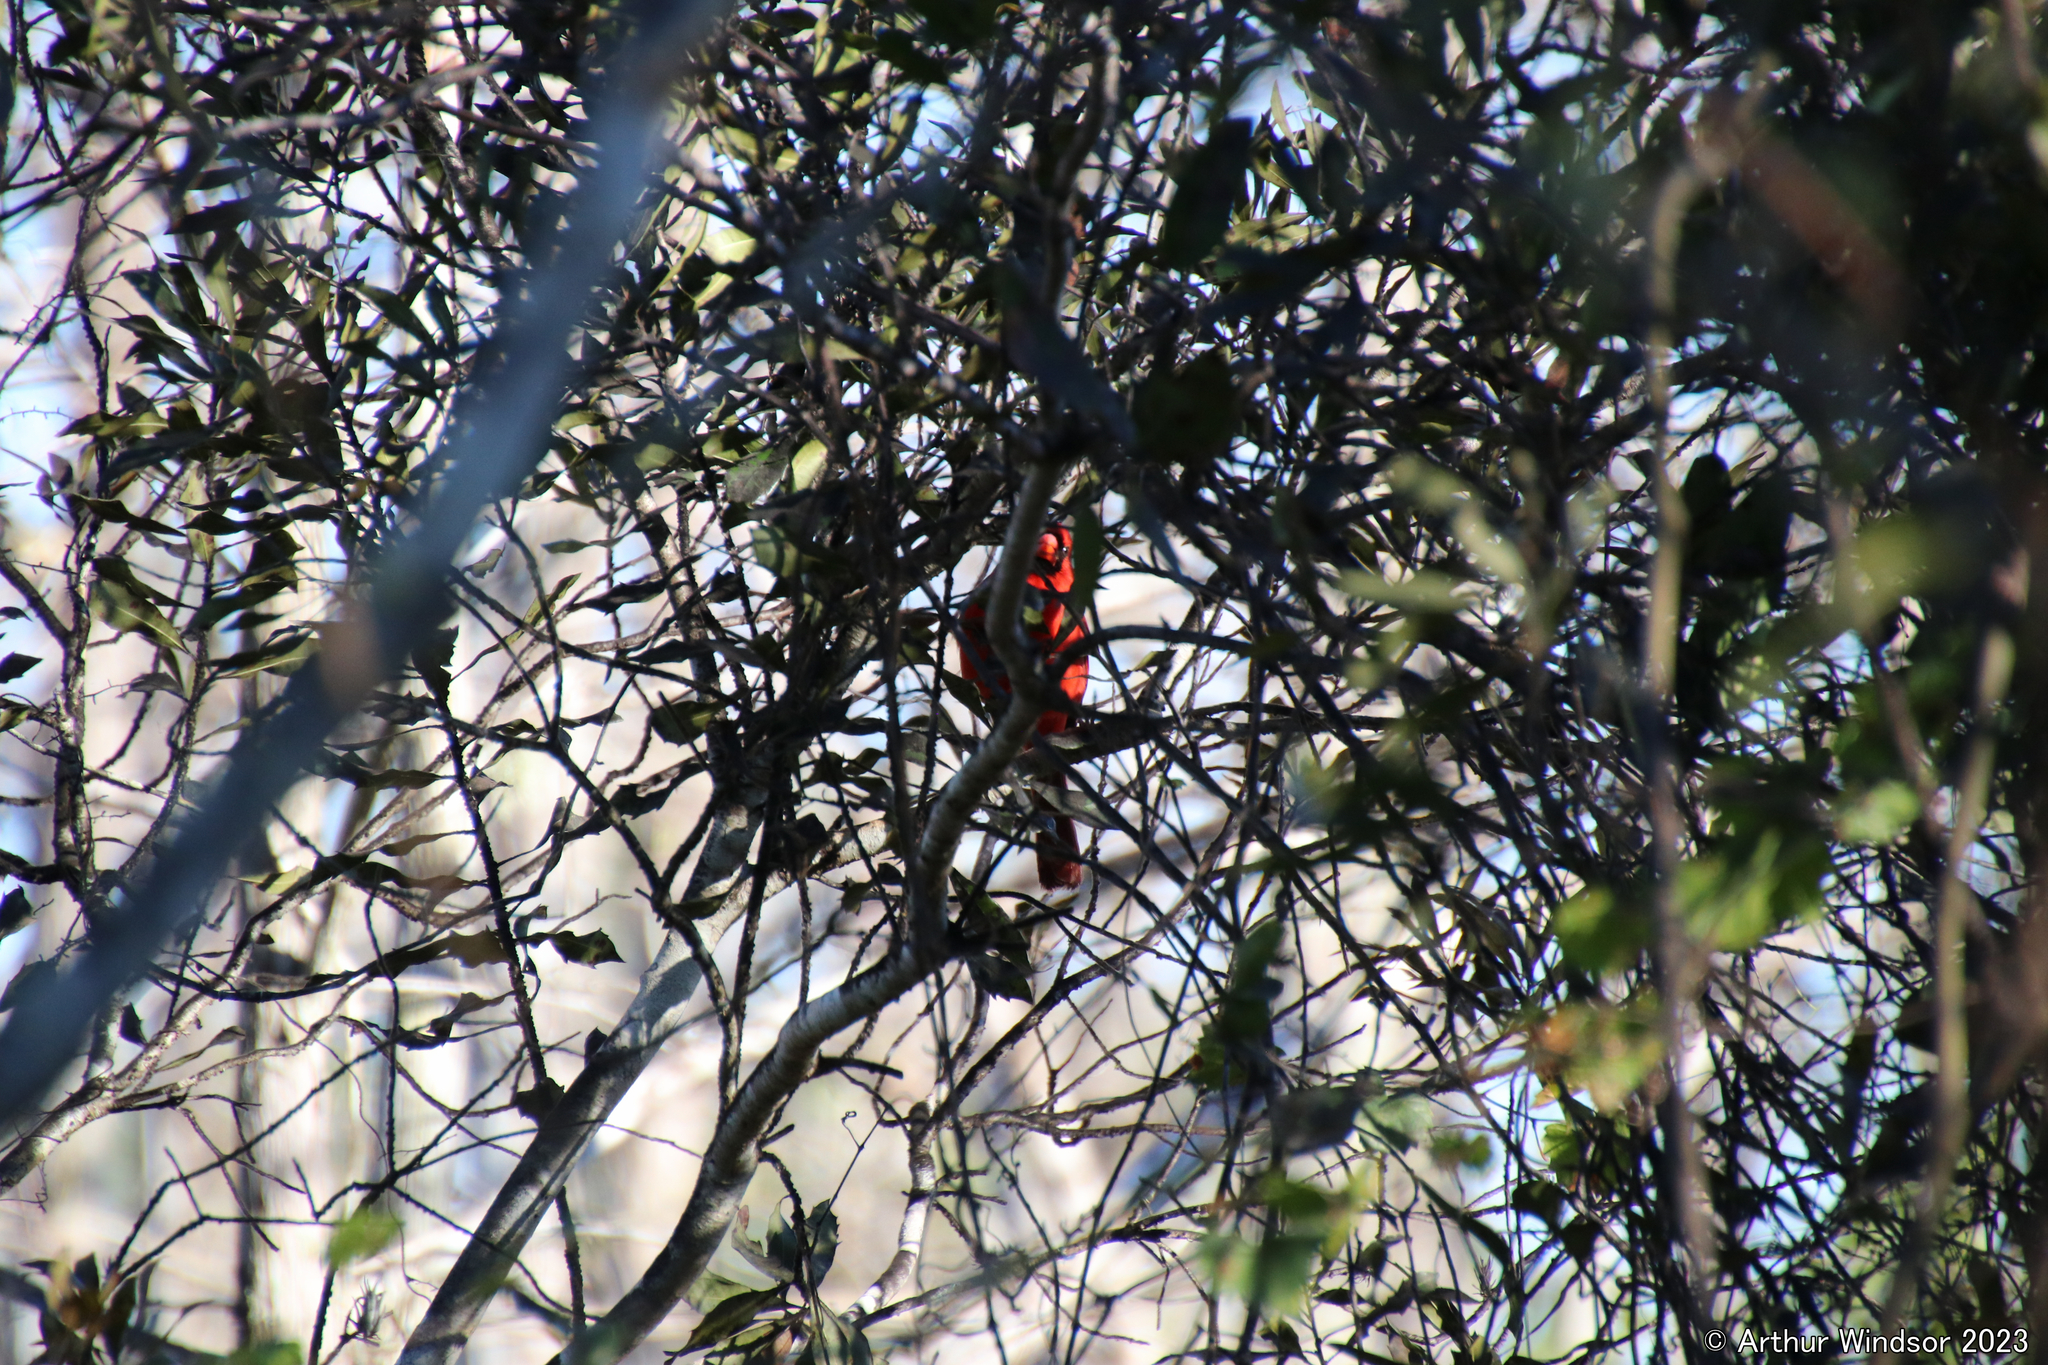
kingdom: Animalia
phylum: Chordata
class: Aves
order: Passeriformes
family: Cardinalidae
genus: Cardinalis
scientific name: Cardinalis cardinalis
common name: Northern cardinal
